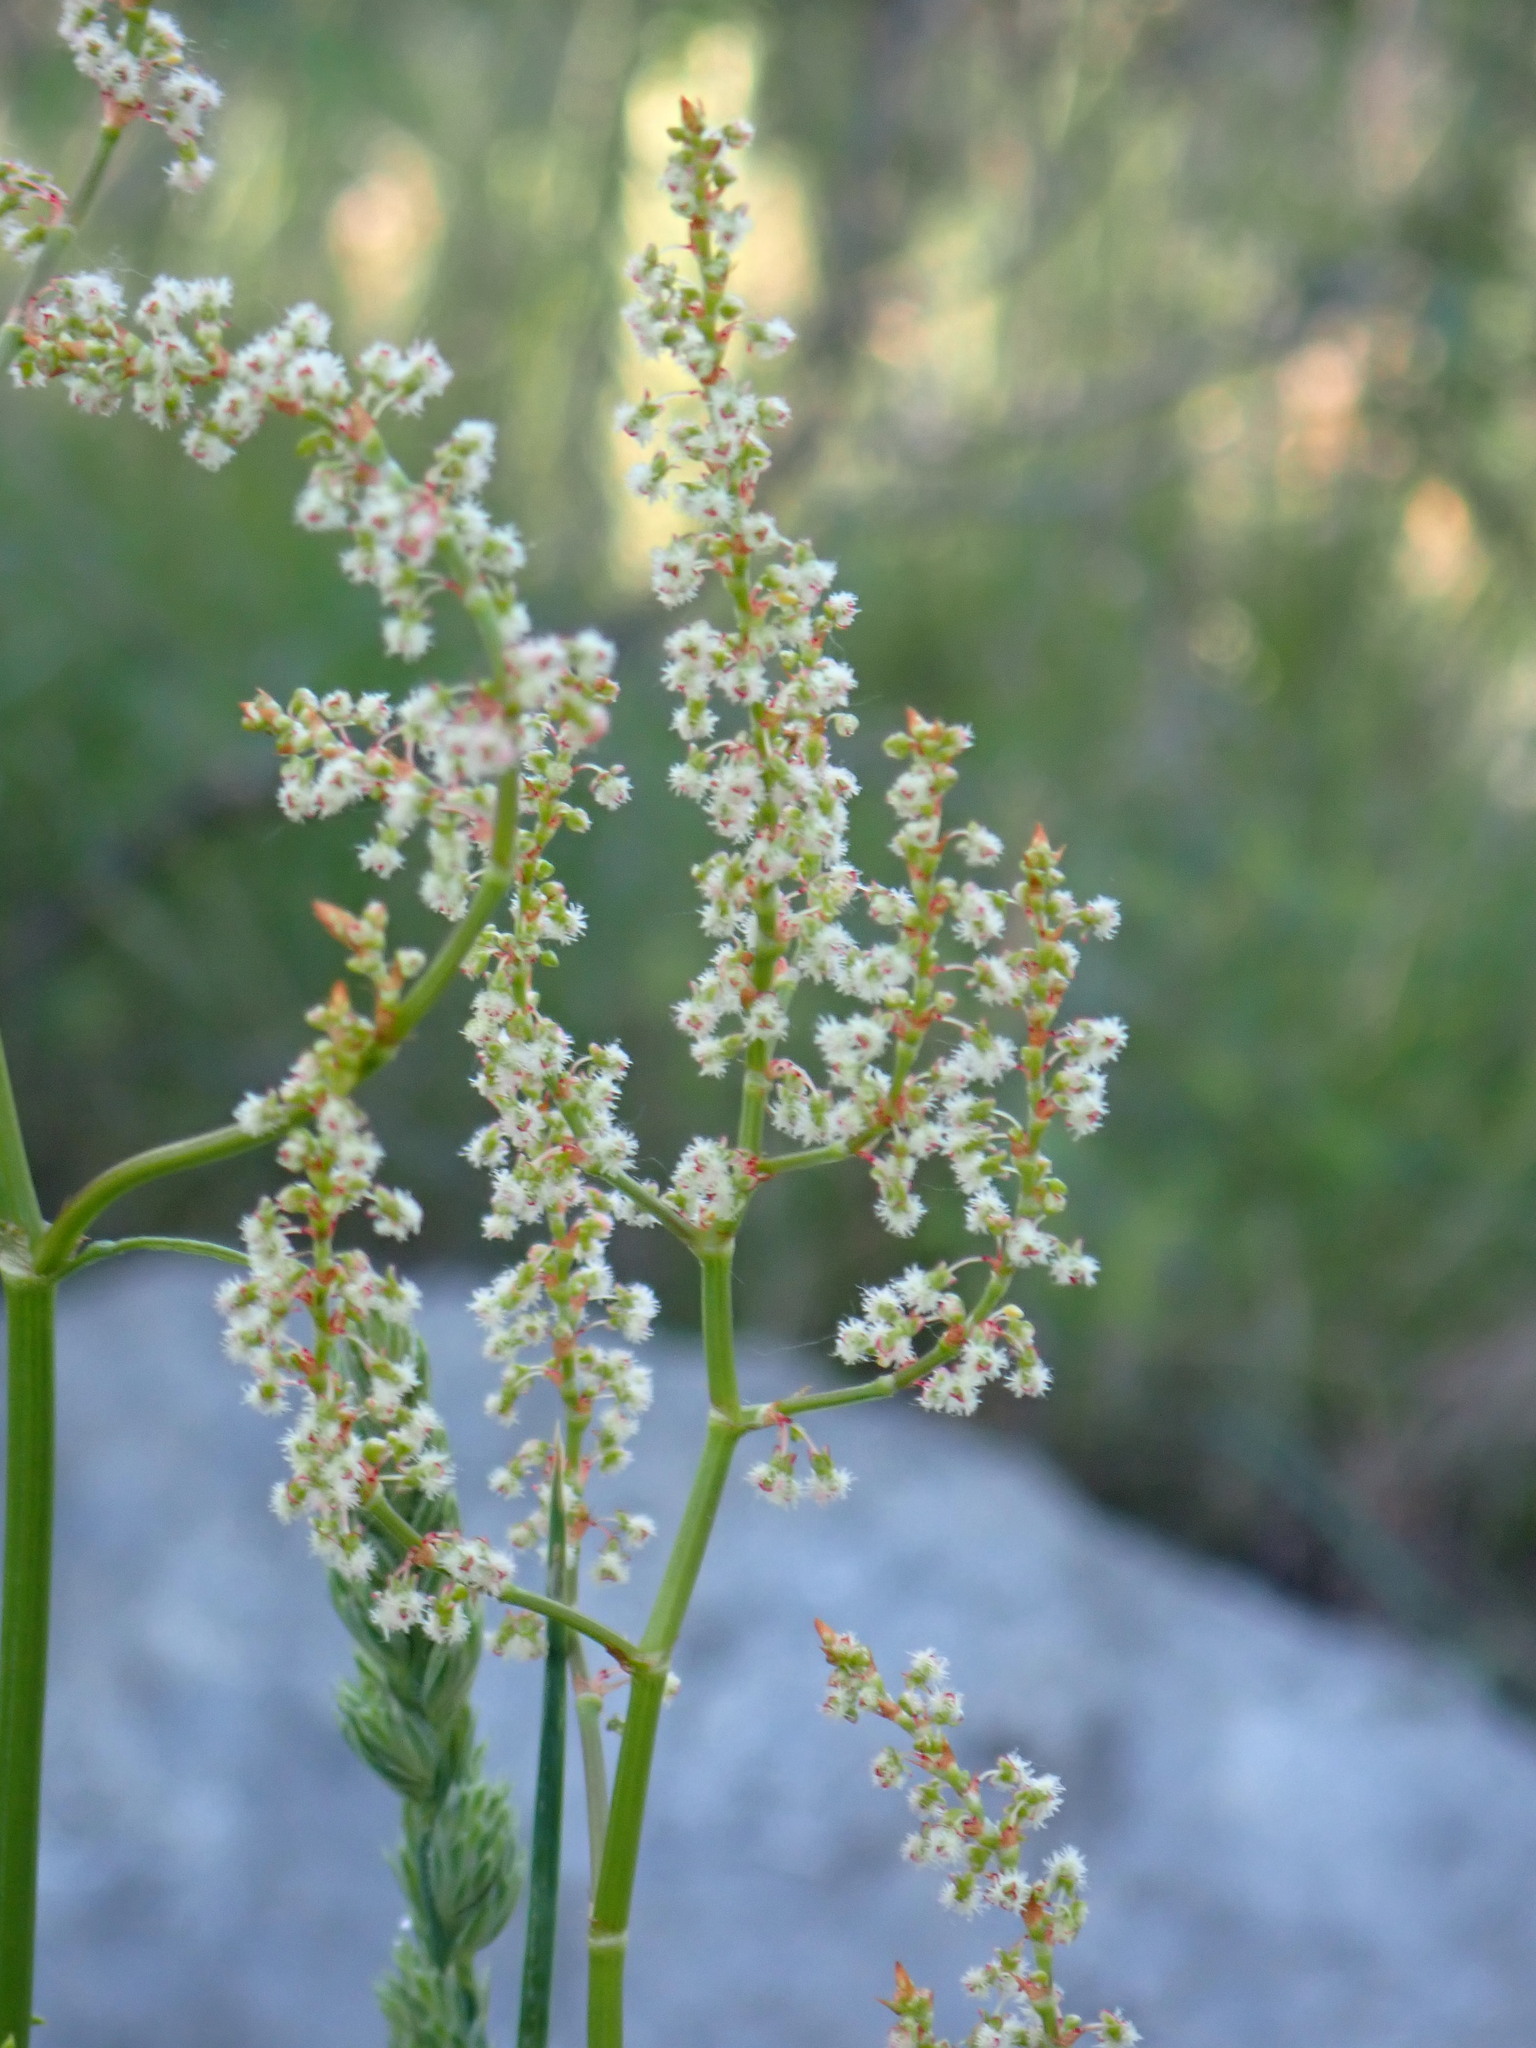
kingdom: Plantae
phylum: Tracheophyta
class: Magnoliopsida
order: Caryophyllales
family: Polygonaceae
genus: Rumex
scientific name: Rumex acetosella
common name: Common sheep sorrel
